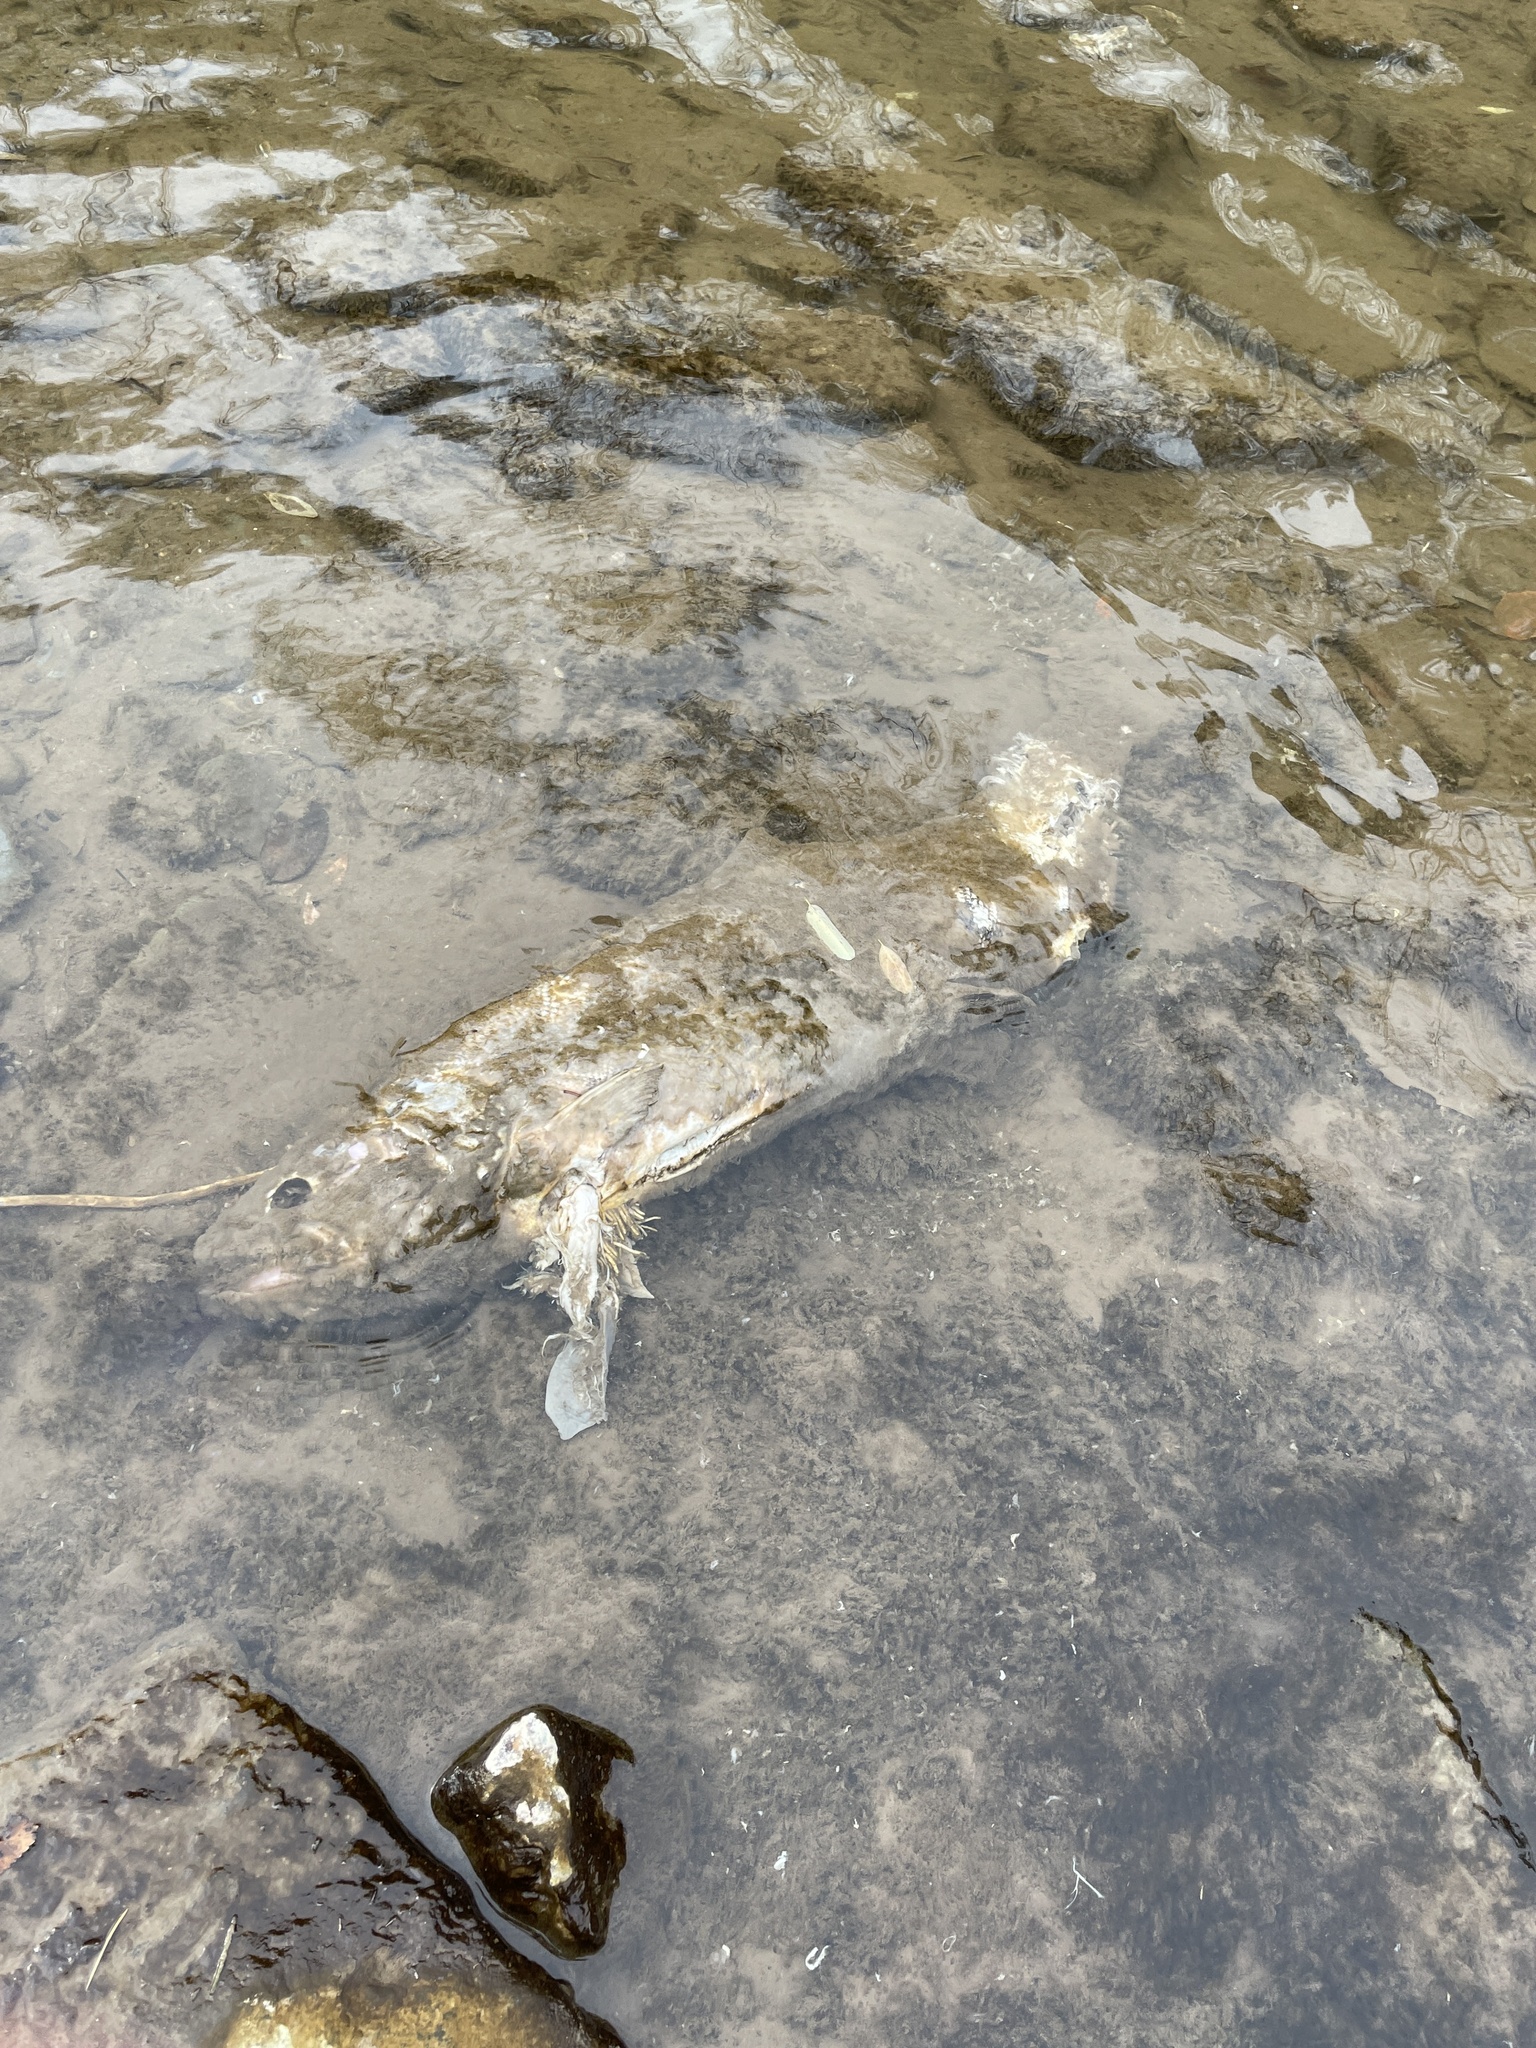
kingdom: Animalia
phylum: Chordata
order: Salmoniformes
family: Salmonidae
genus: Oncorhynchus
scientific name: Oncorhynchus tshawytscha
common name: Chinook salmon
